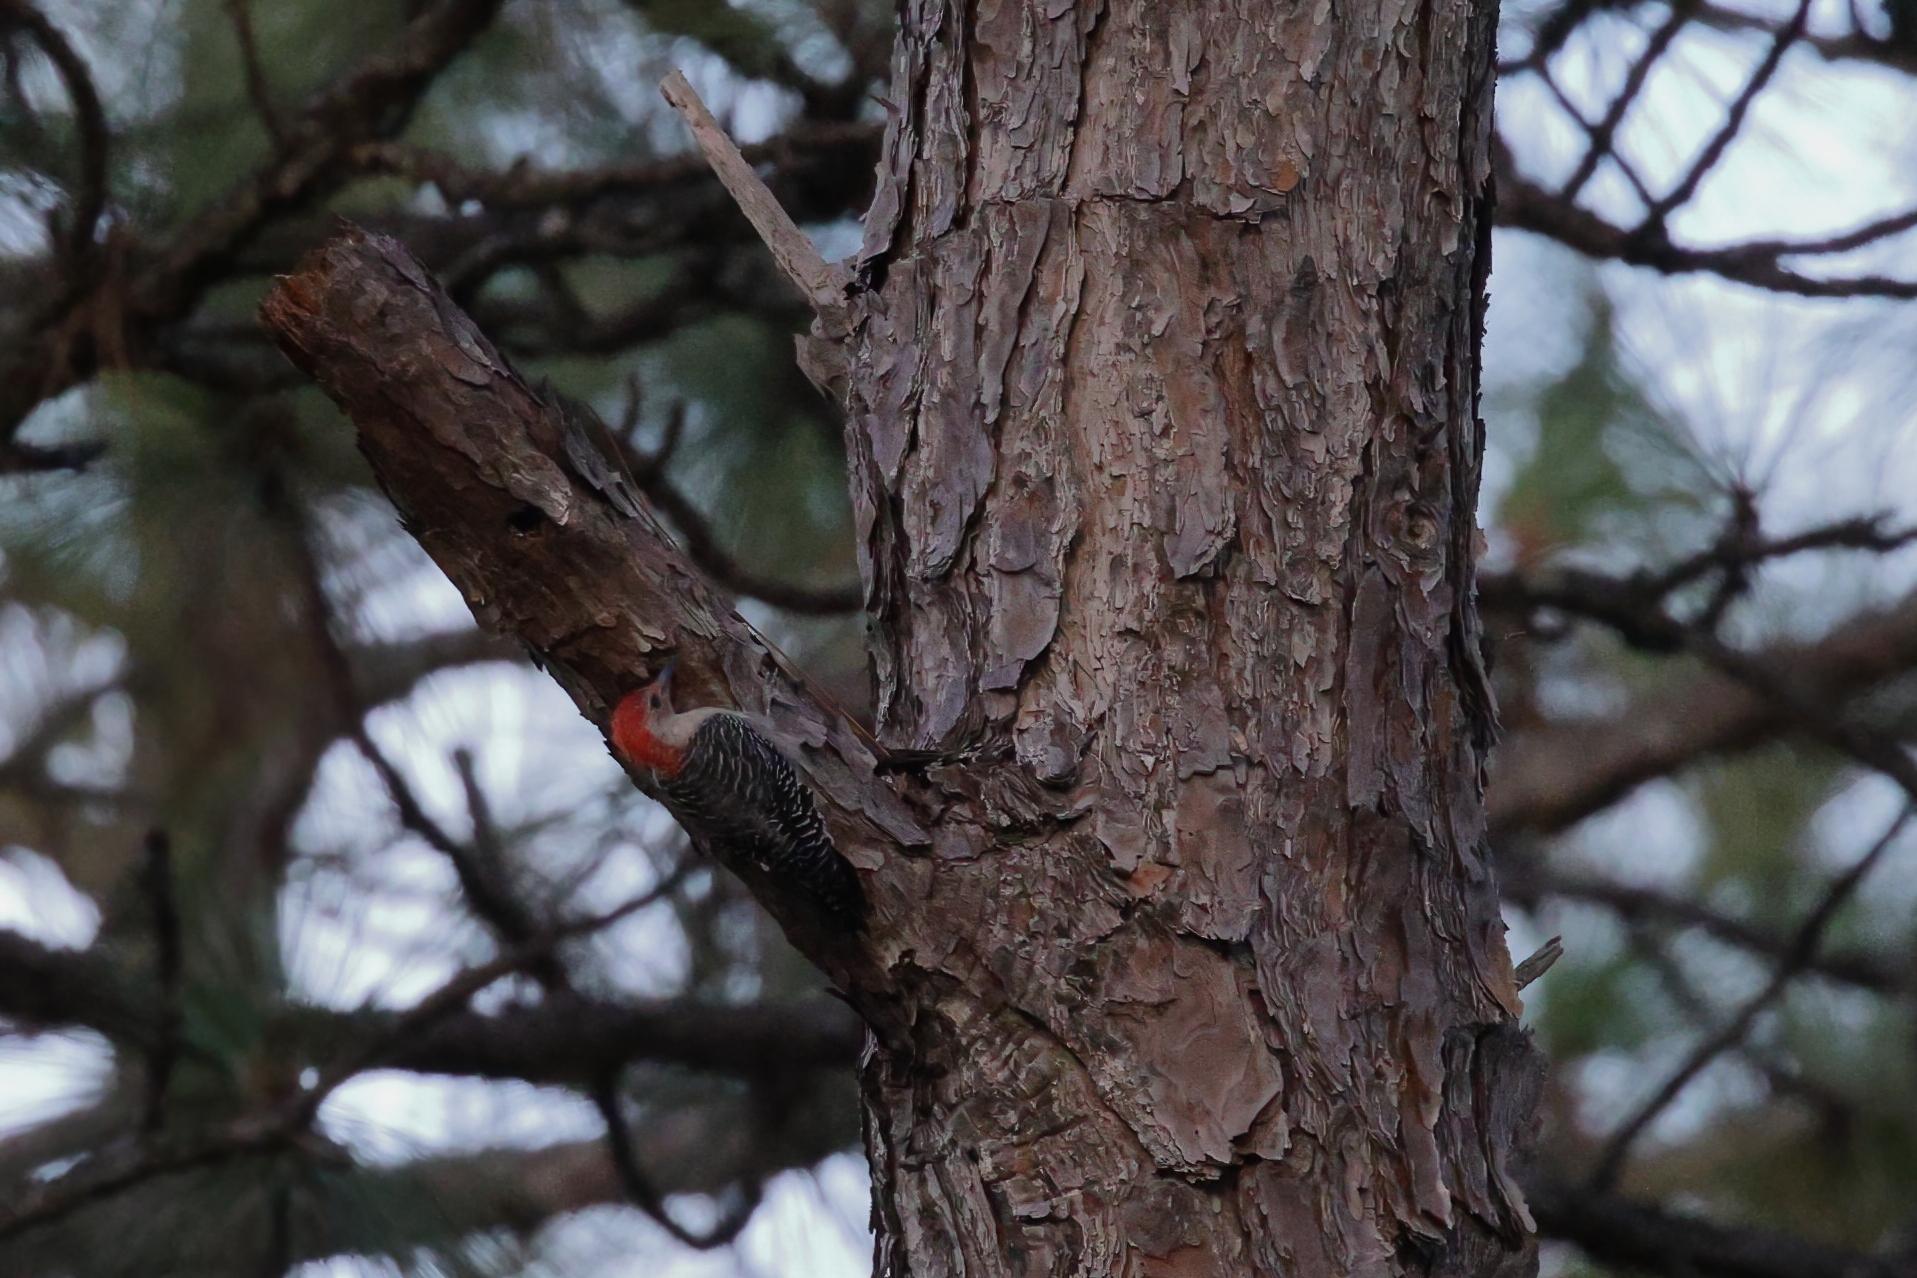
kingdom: Animalia
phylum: Chordata
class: Aves
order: Piciformes
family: Picidae
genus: Melanerpes
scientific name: Melanerpes carolinus
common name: Red-bellied woodpecker
